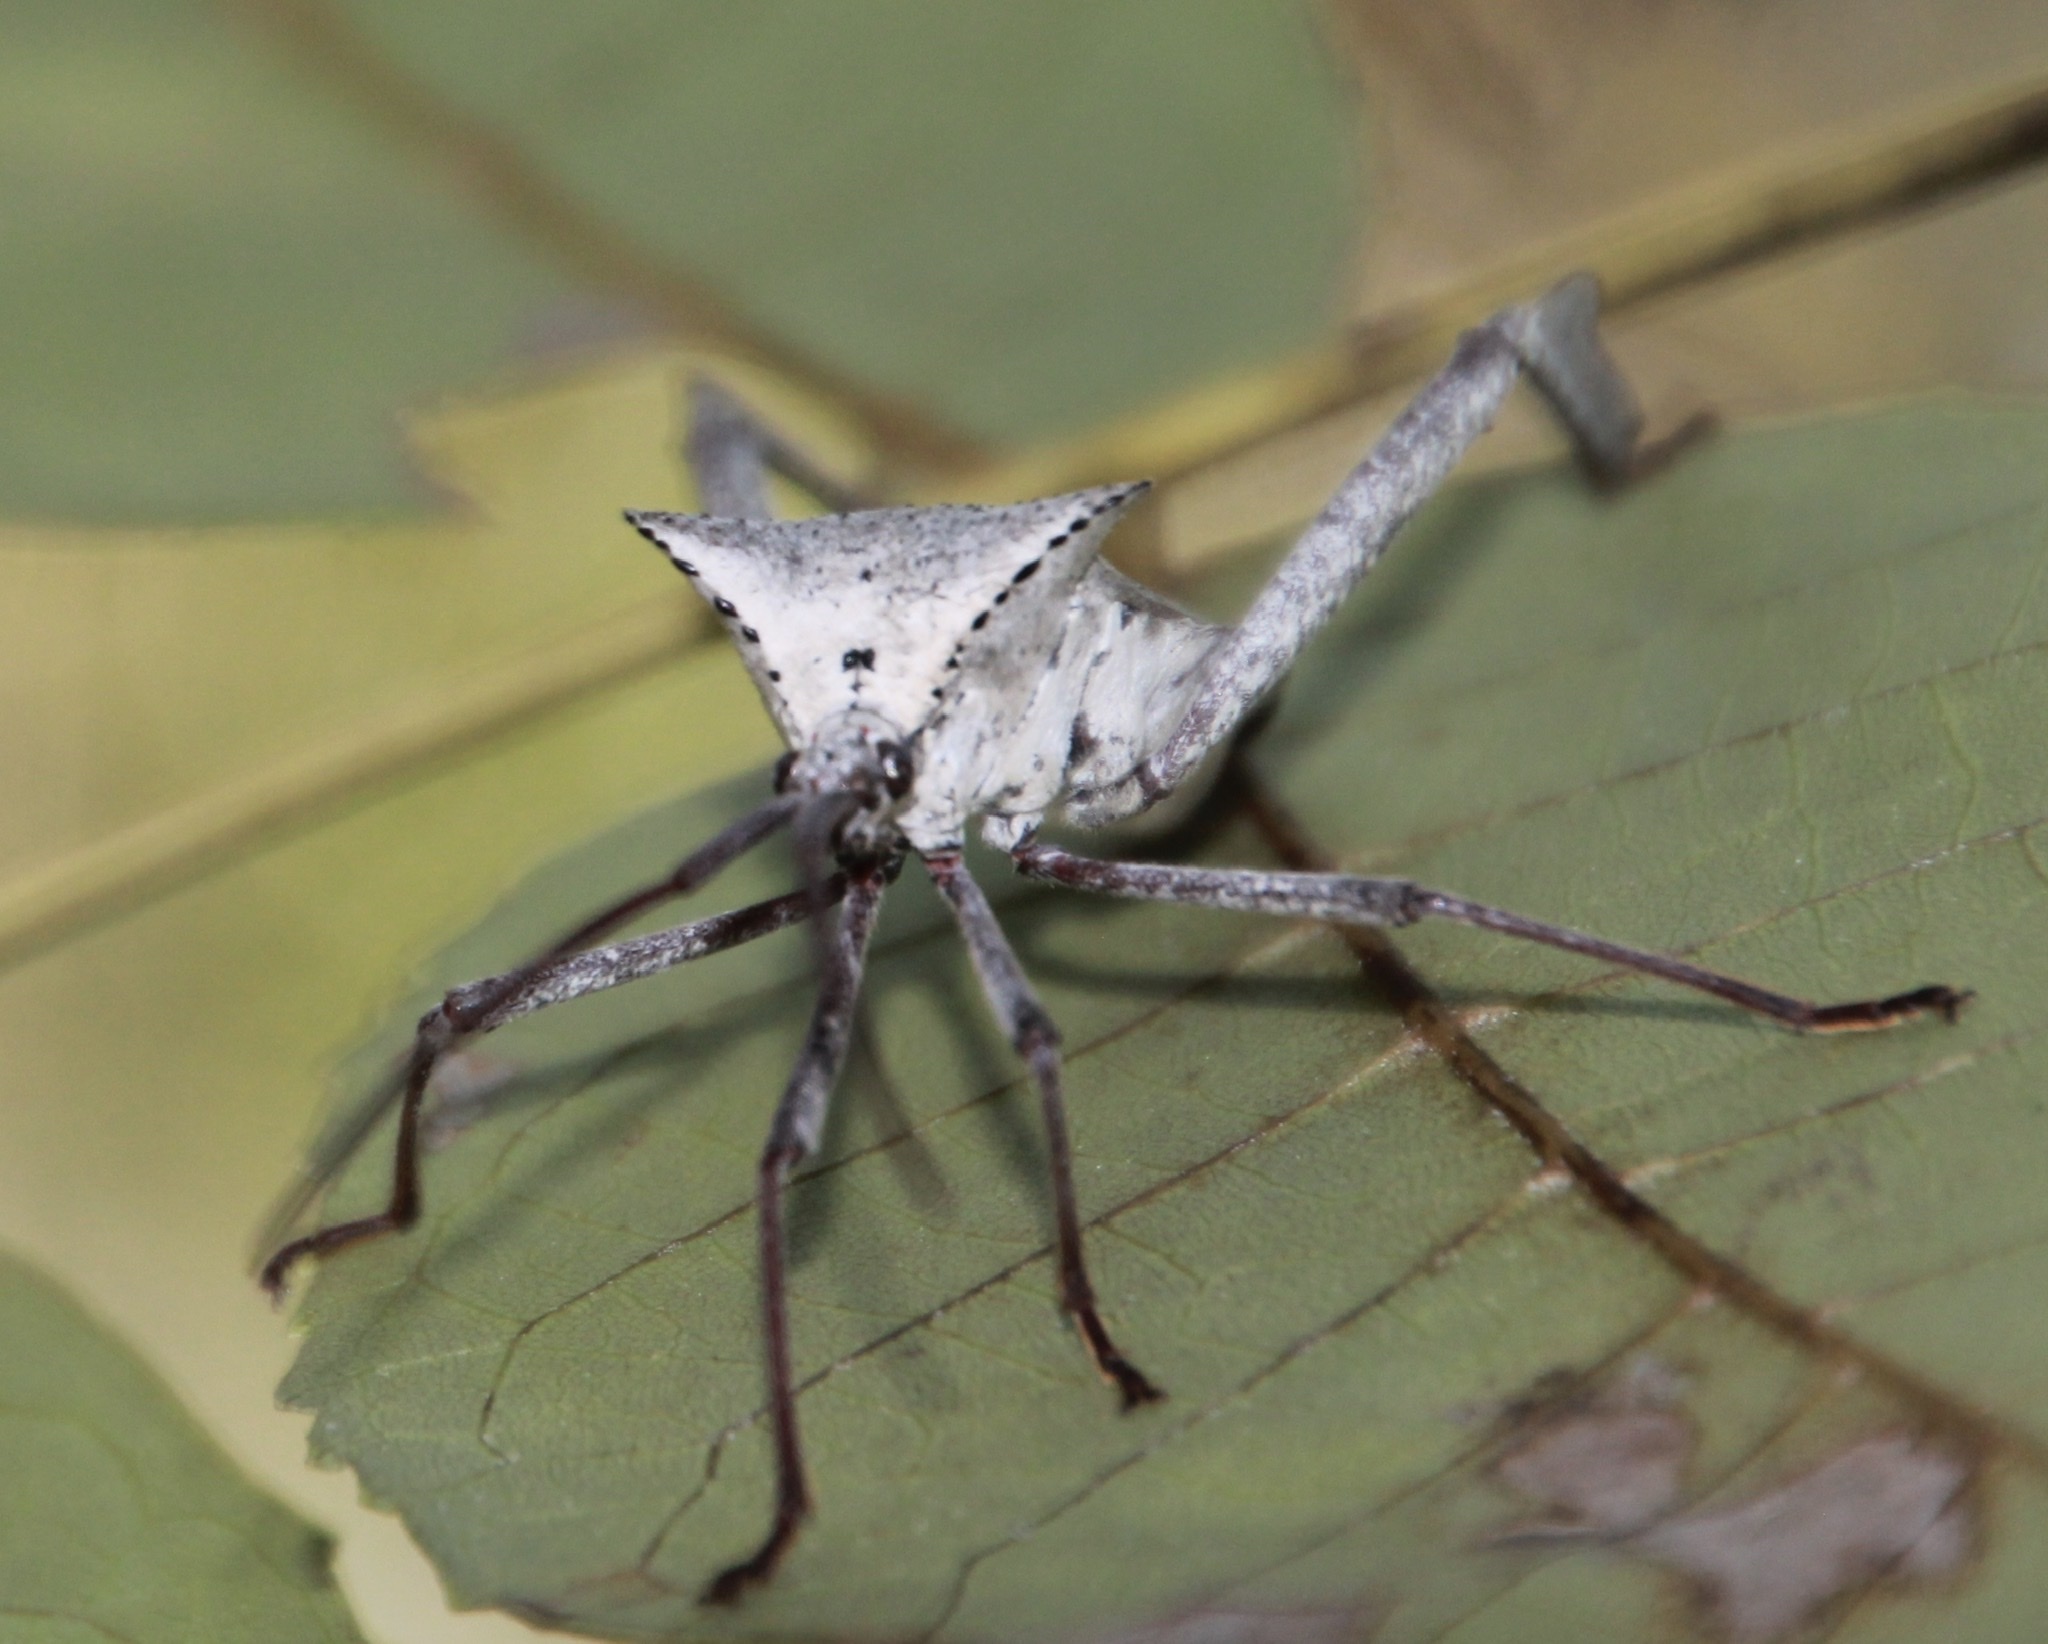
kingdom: Animalia
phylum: Arthropoda
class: Insecta
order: Hemiptera
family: Coreidae
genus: Acanthocephala
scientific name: Acanthocephala declivis
